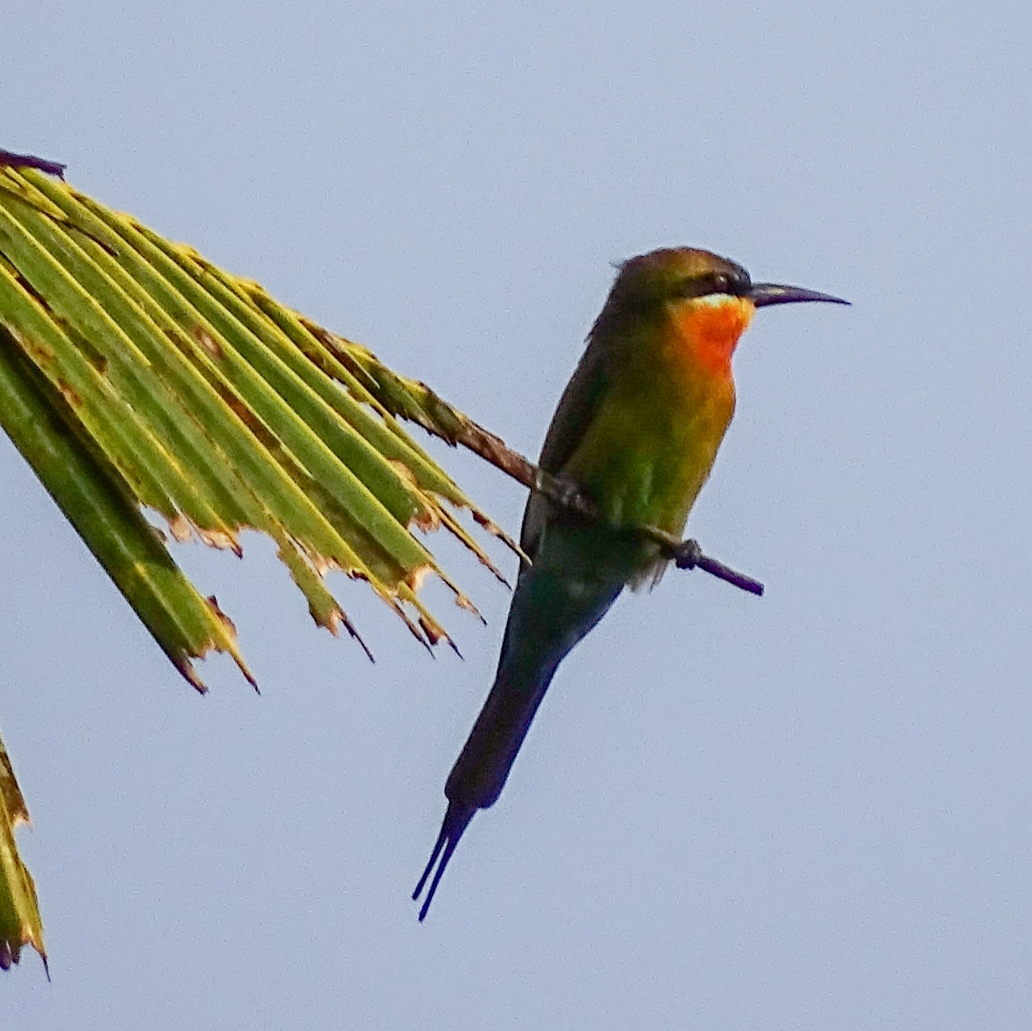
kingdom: Animalia
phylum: Chordata
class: Aves
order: Coraciiformes
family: Meropidae
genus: Merops
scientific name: Merops philippinus
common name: Blue-tailed bee-eater
